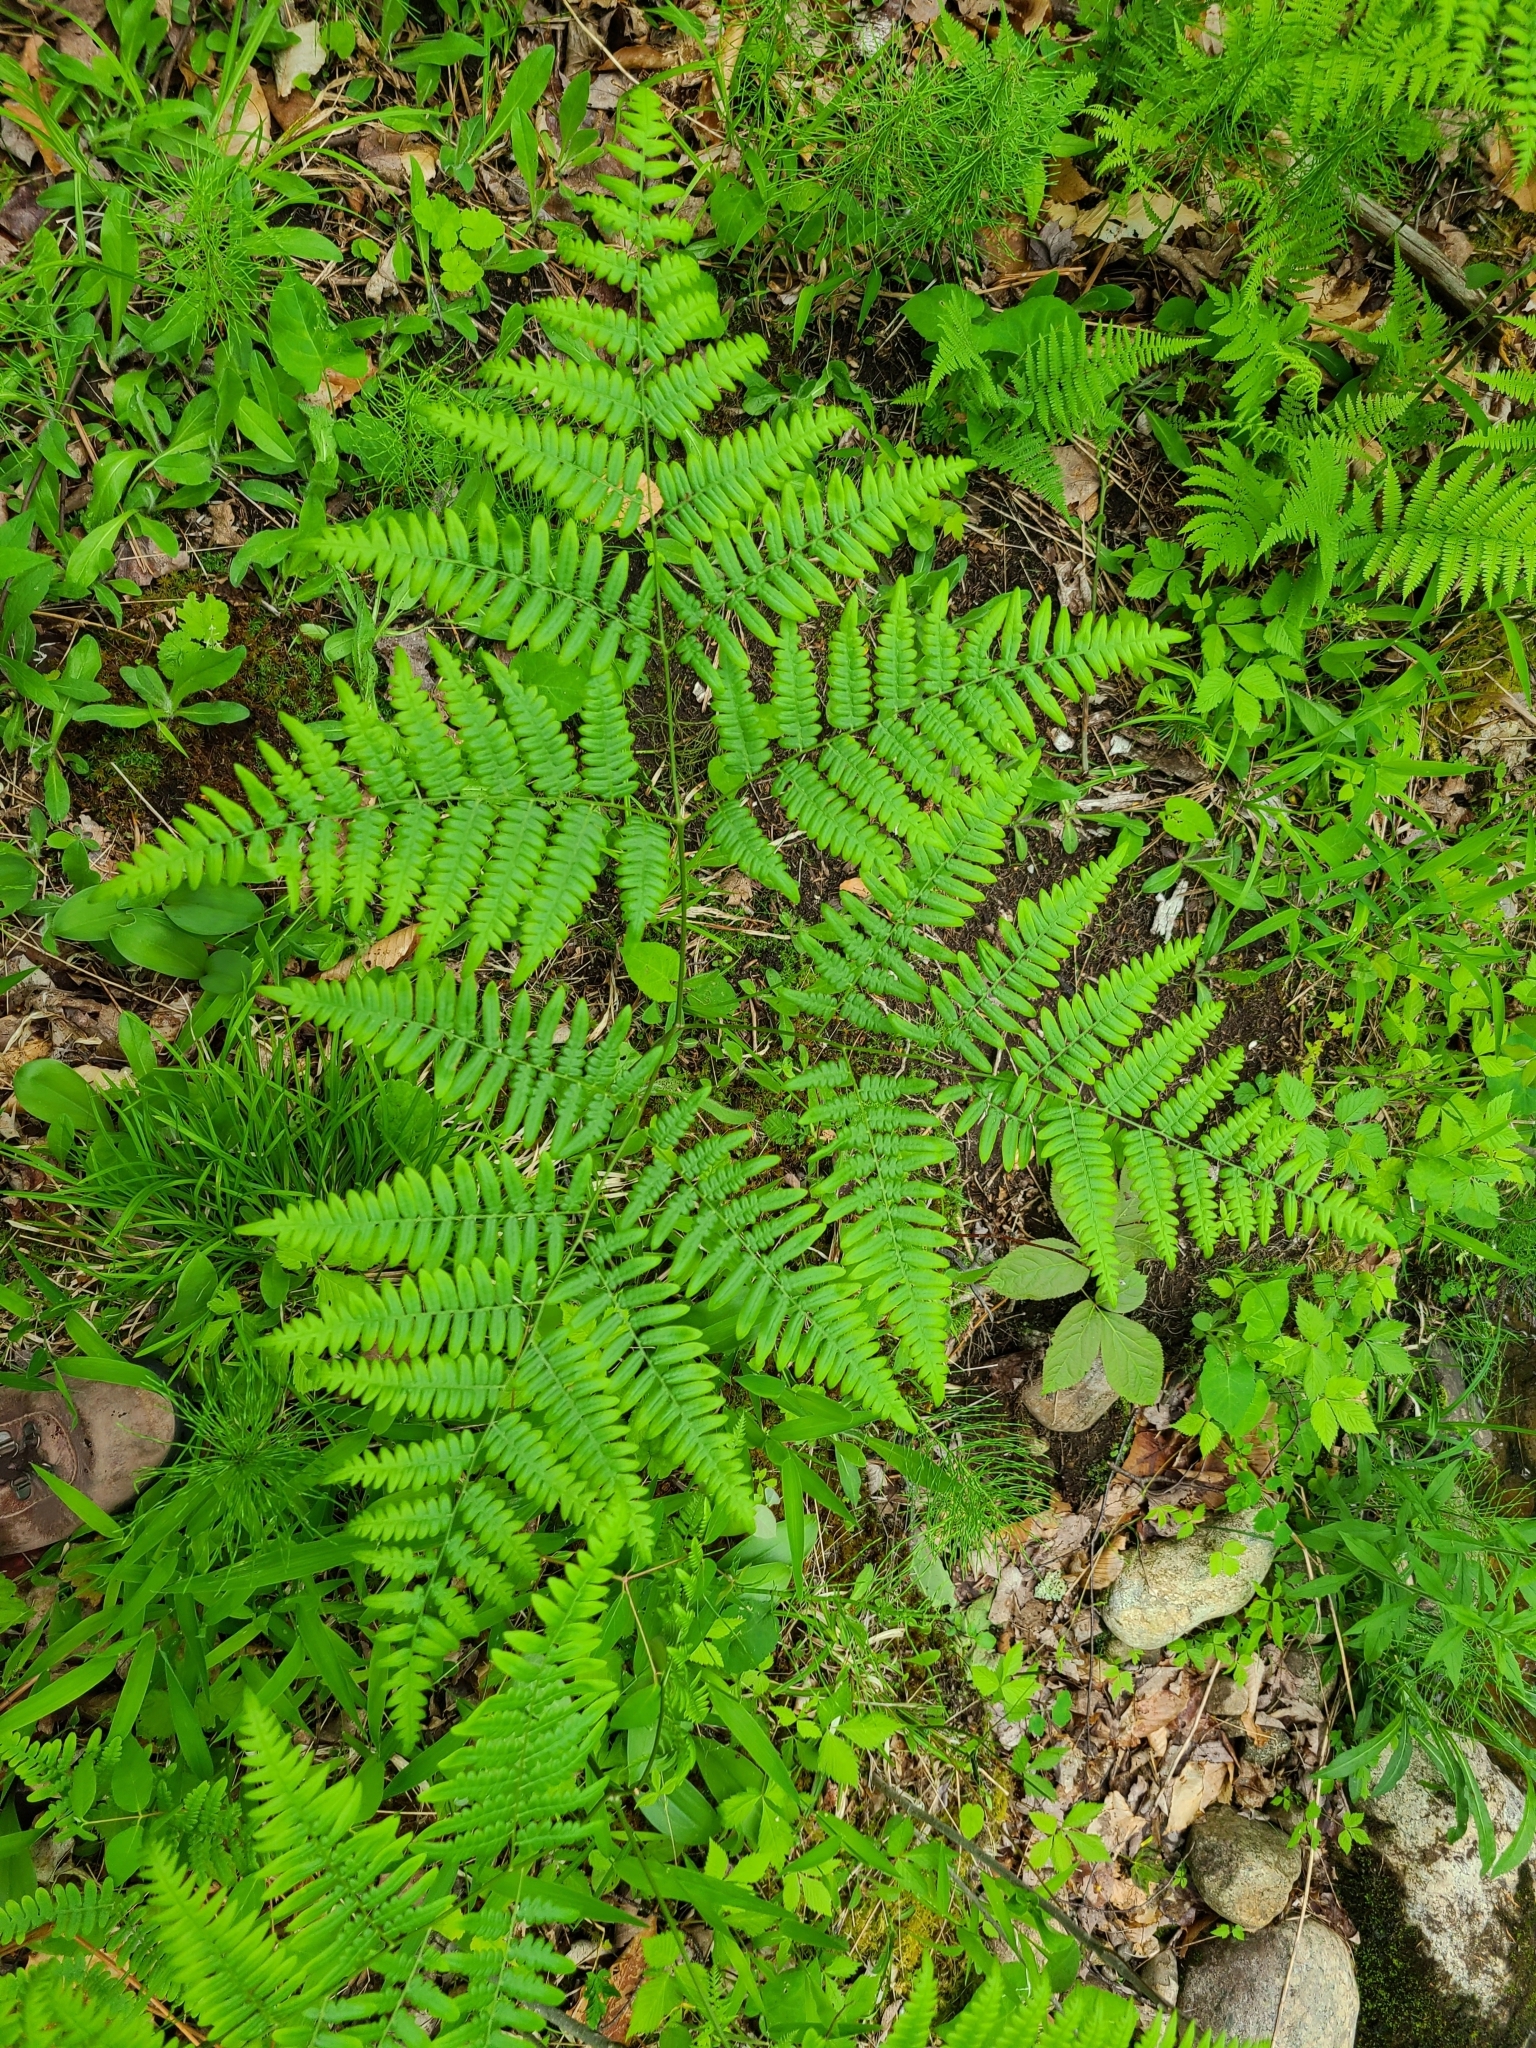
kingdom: Plantae
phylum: Tracheophyta
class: Polypodiopsida
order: Polypodiales
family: Dennstaedtiaceae
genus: Pteridium
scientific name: Pteridium aquilinum
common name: Bracken
